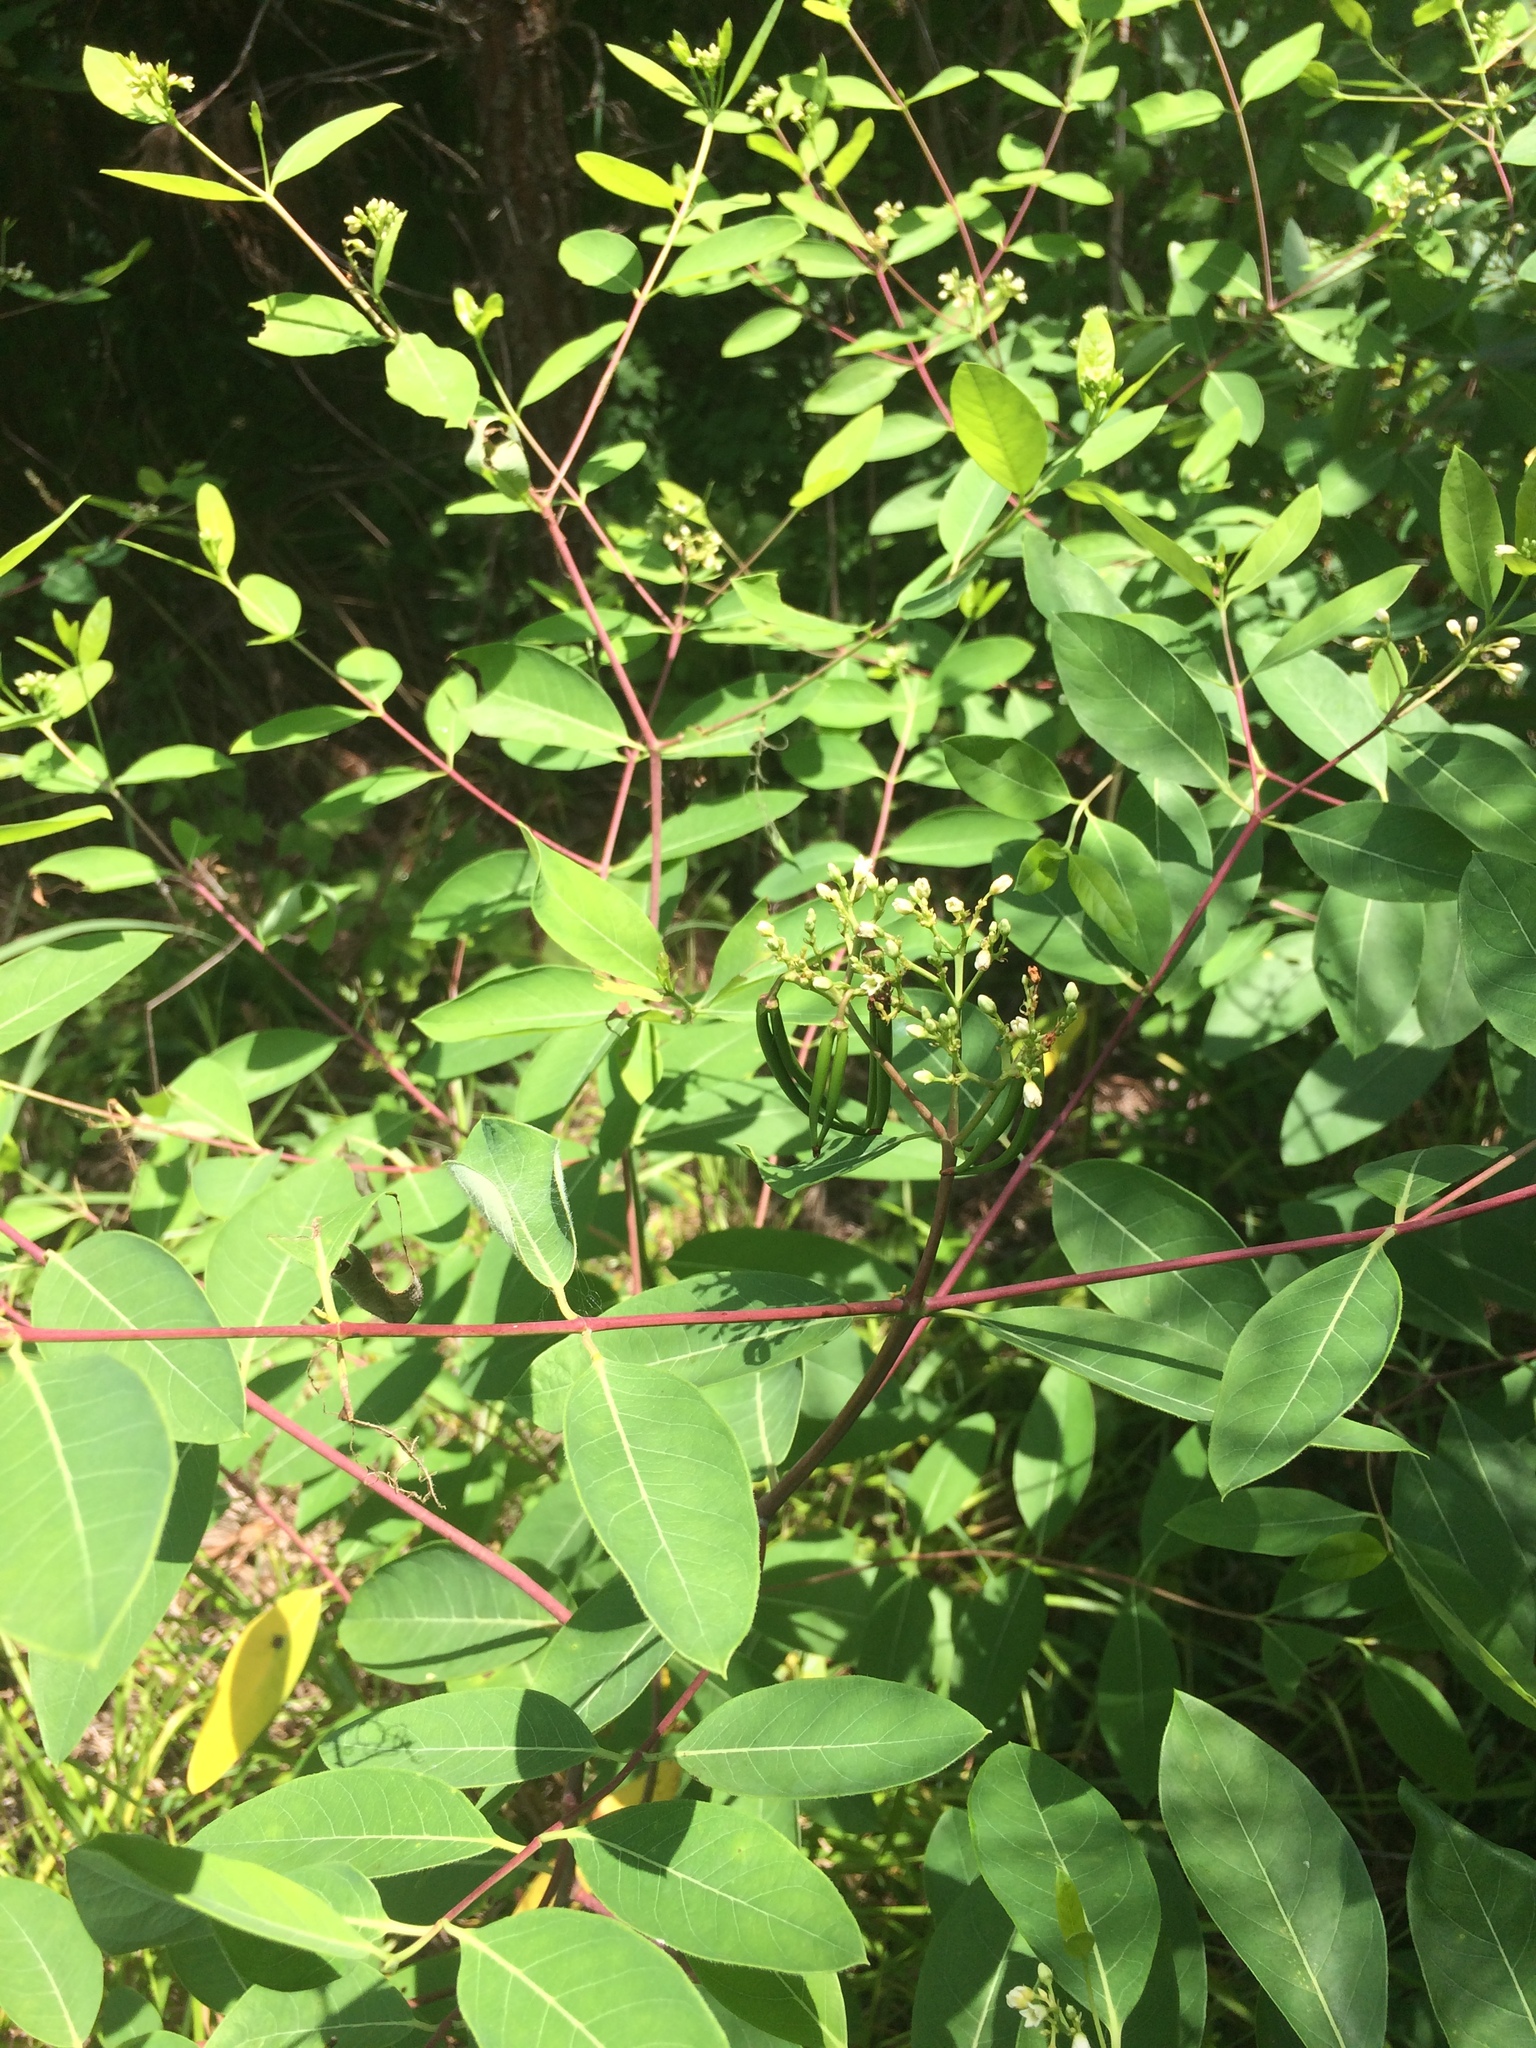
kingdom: Plantae
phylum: Tracheophyta
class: Magnoliopsida
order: Gentianales
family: Apocynaceae
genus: Apocynum
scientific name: Apocynum cannabinum
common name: Hemp dogbane
